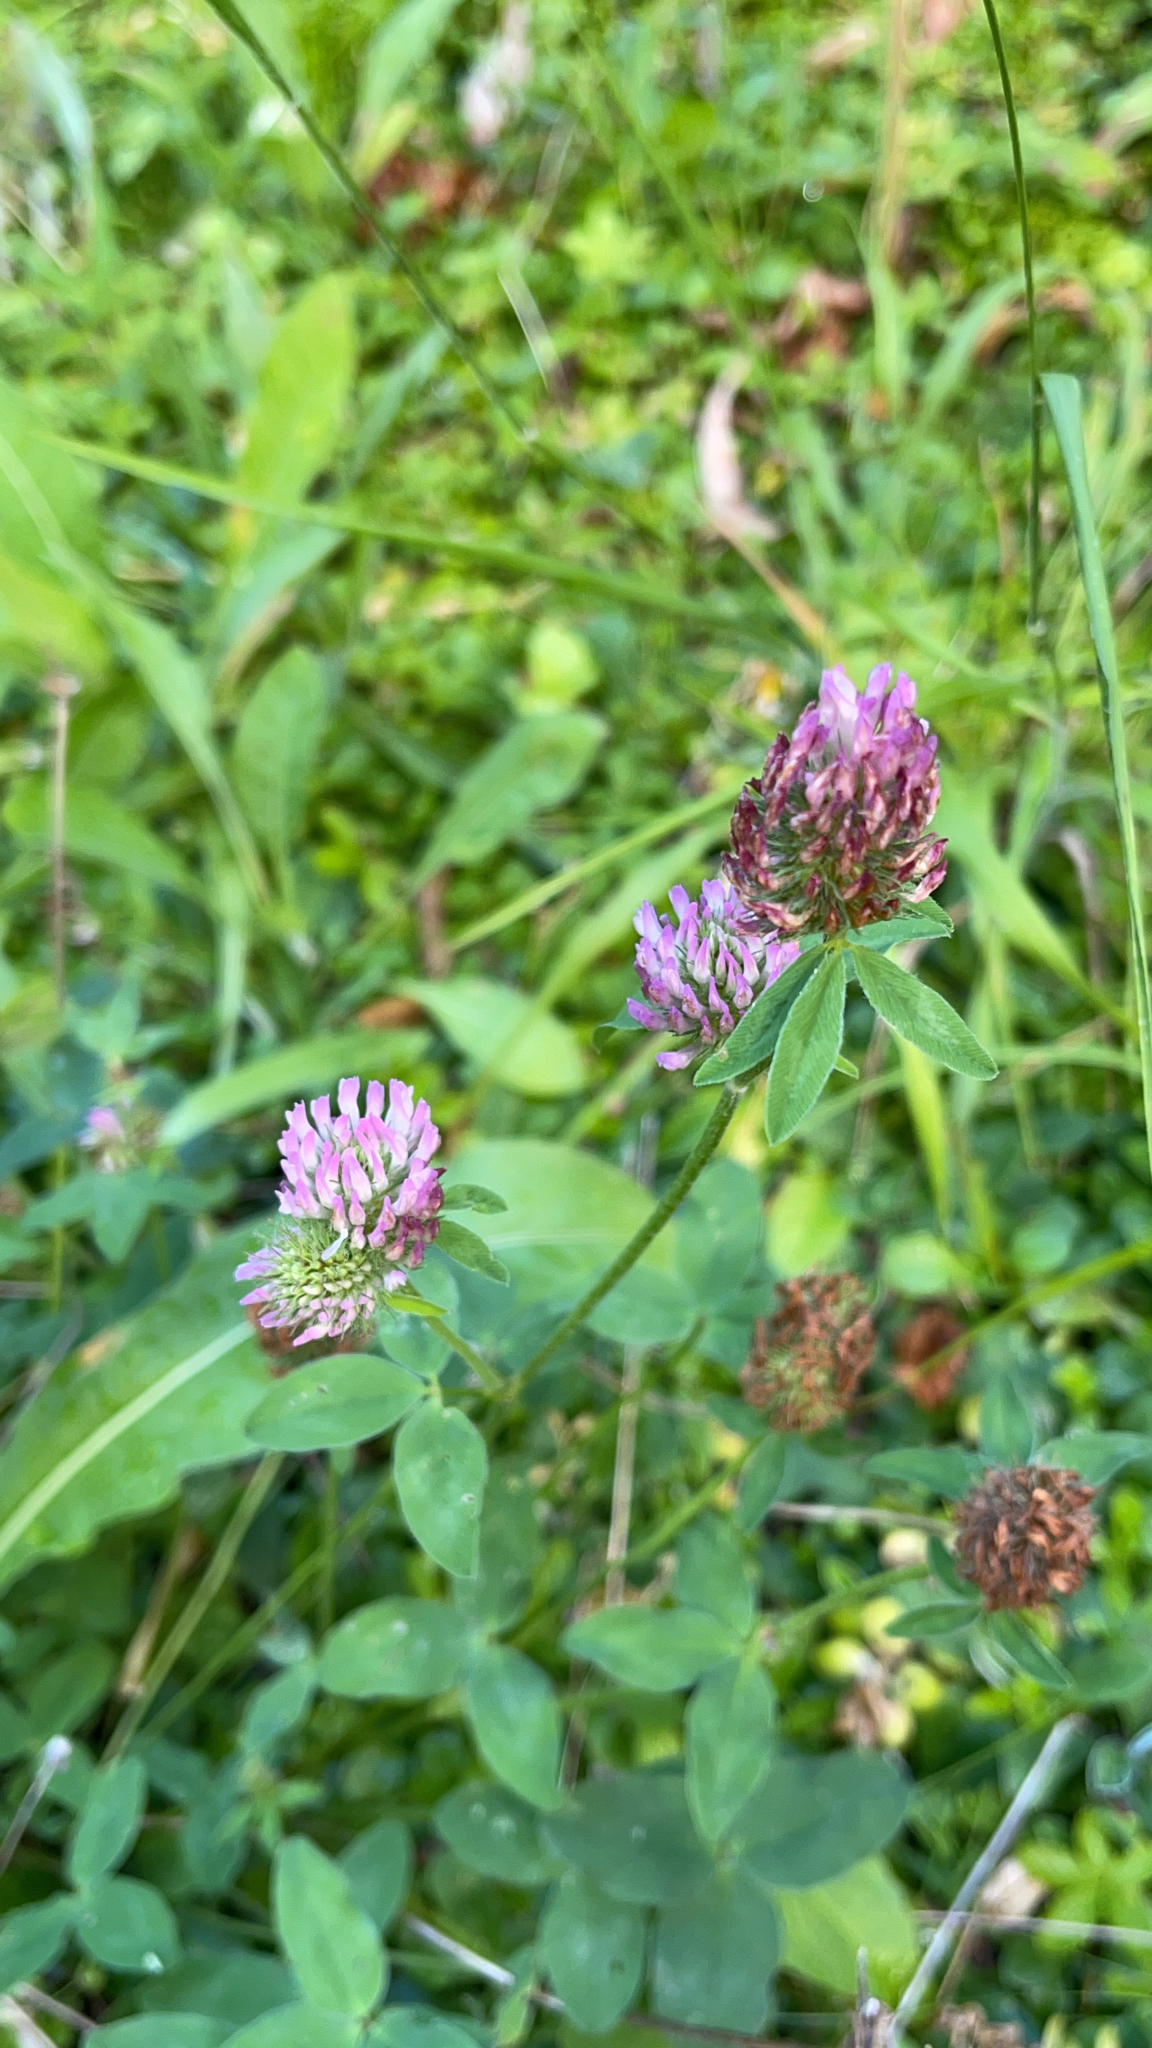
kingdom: Plantae
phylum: Tracheophyta
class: Magnoliopsida
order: Fabales
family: Fabaceae
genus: Trifolium
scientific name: Trifolium pratense
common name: Red clover
